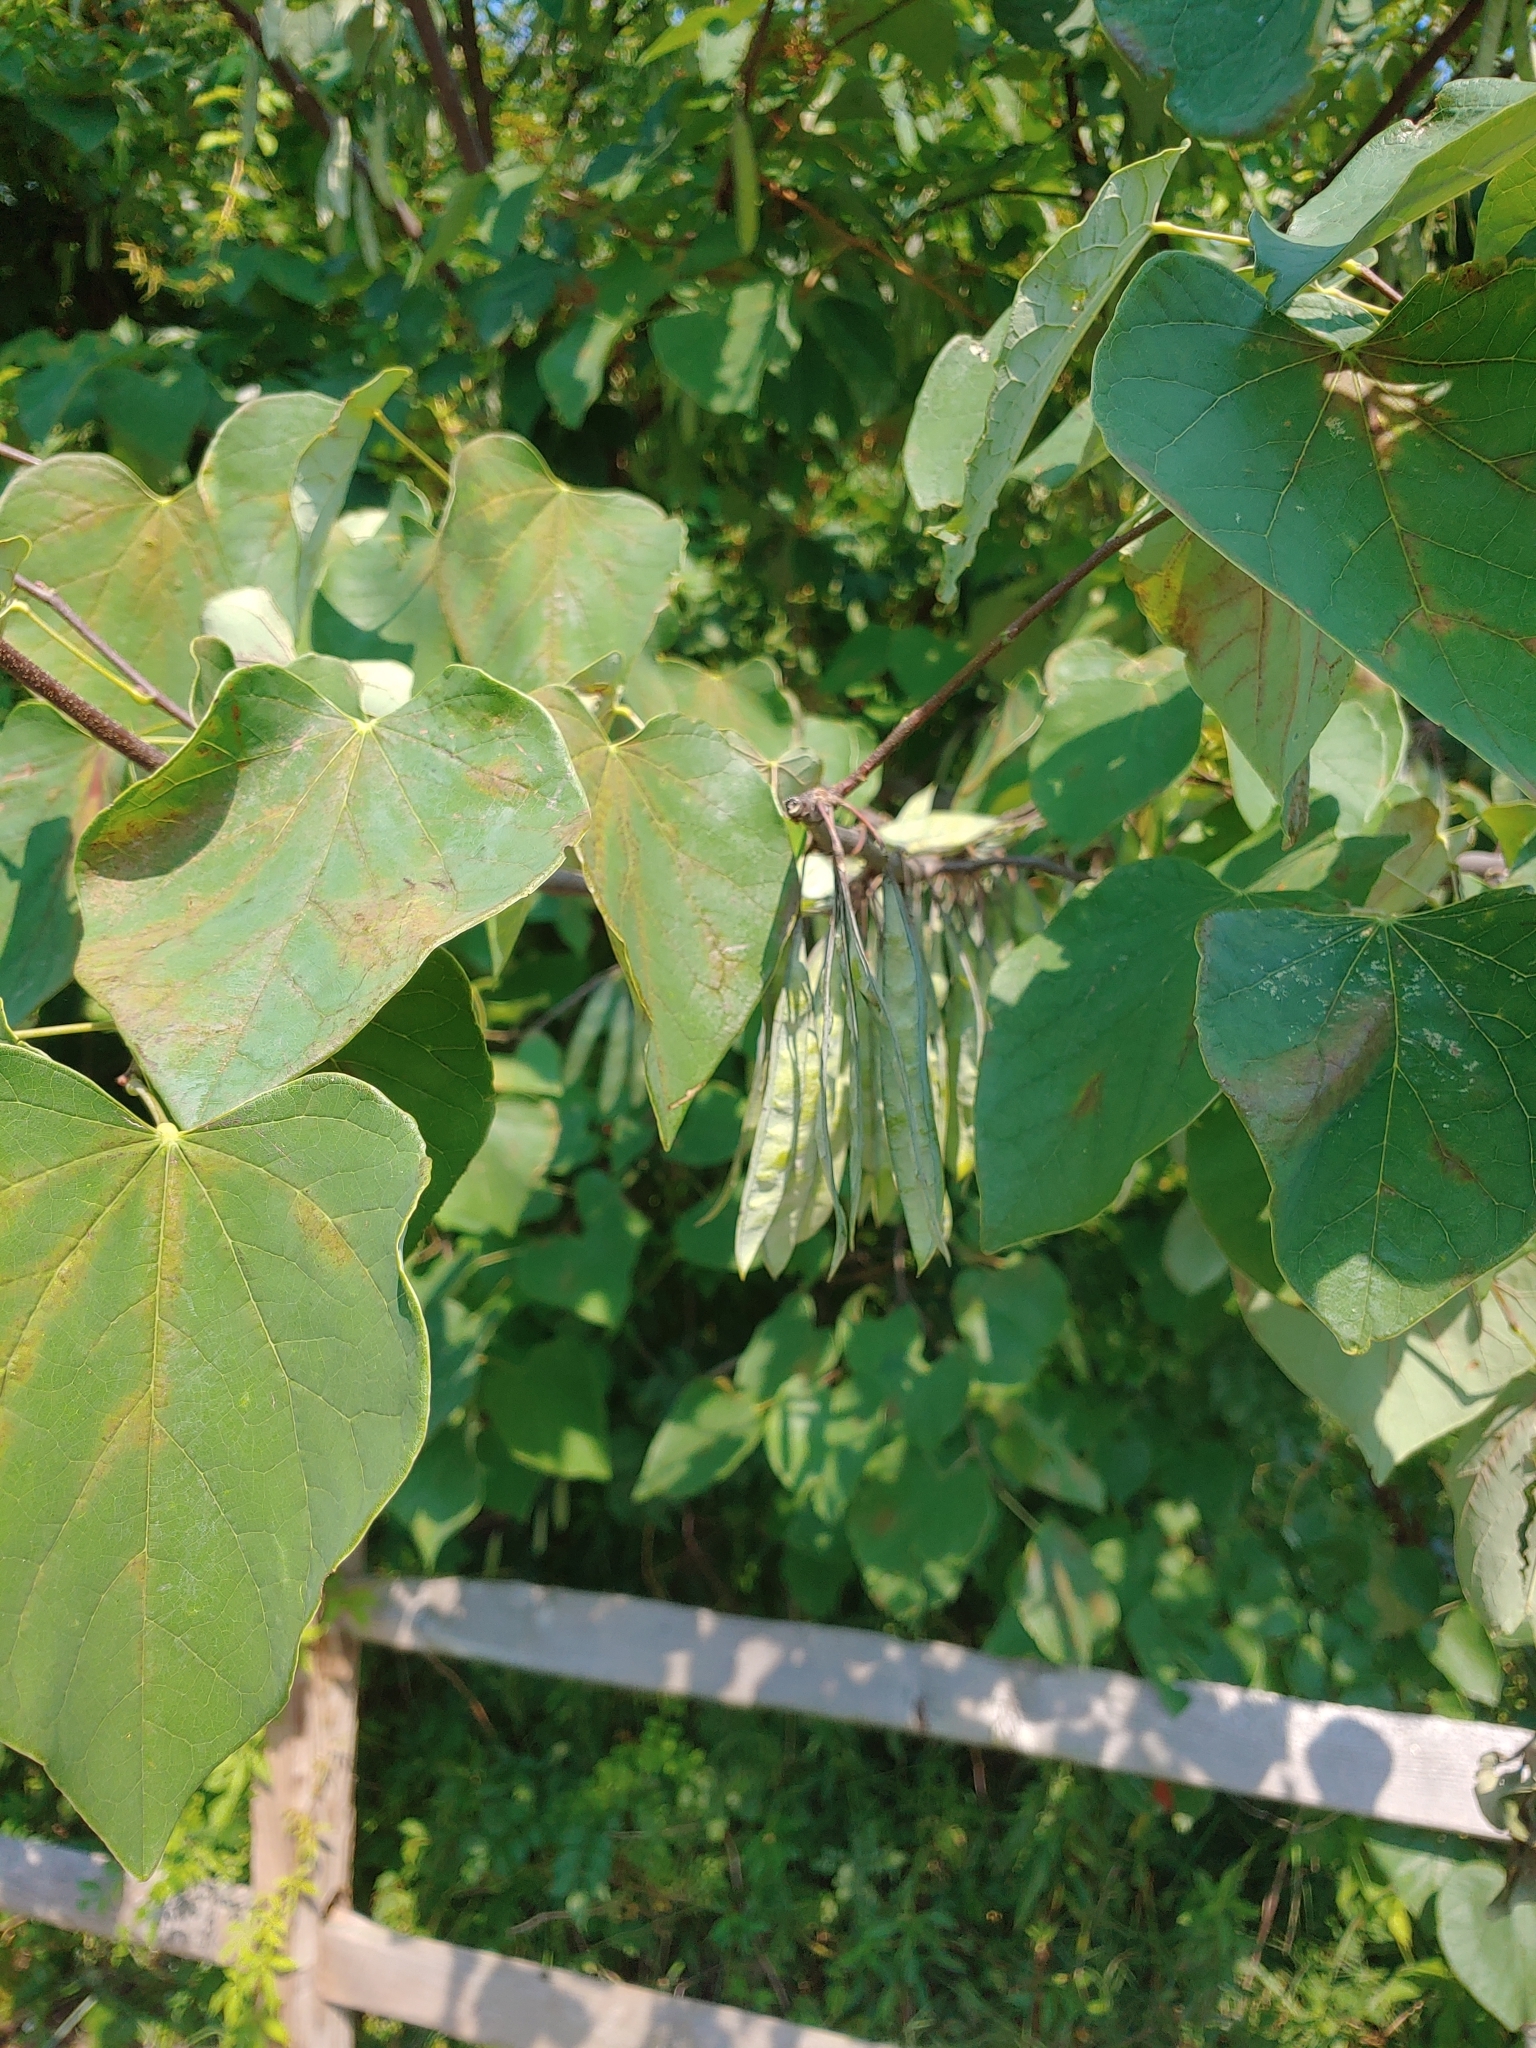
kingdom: Plantae
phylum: Tracheophyta
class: Magnoliopsida
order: Fabales
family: Fabaceae
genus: Cercis
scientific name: Cercis canadensis
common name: Eastern redbud
